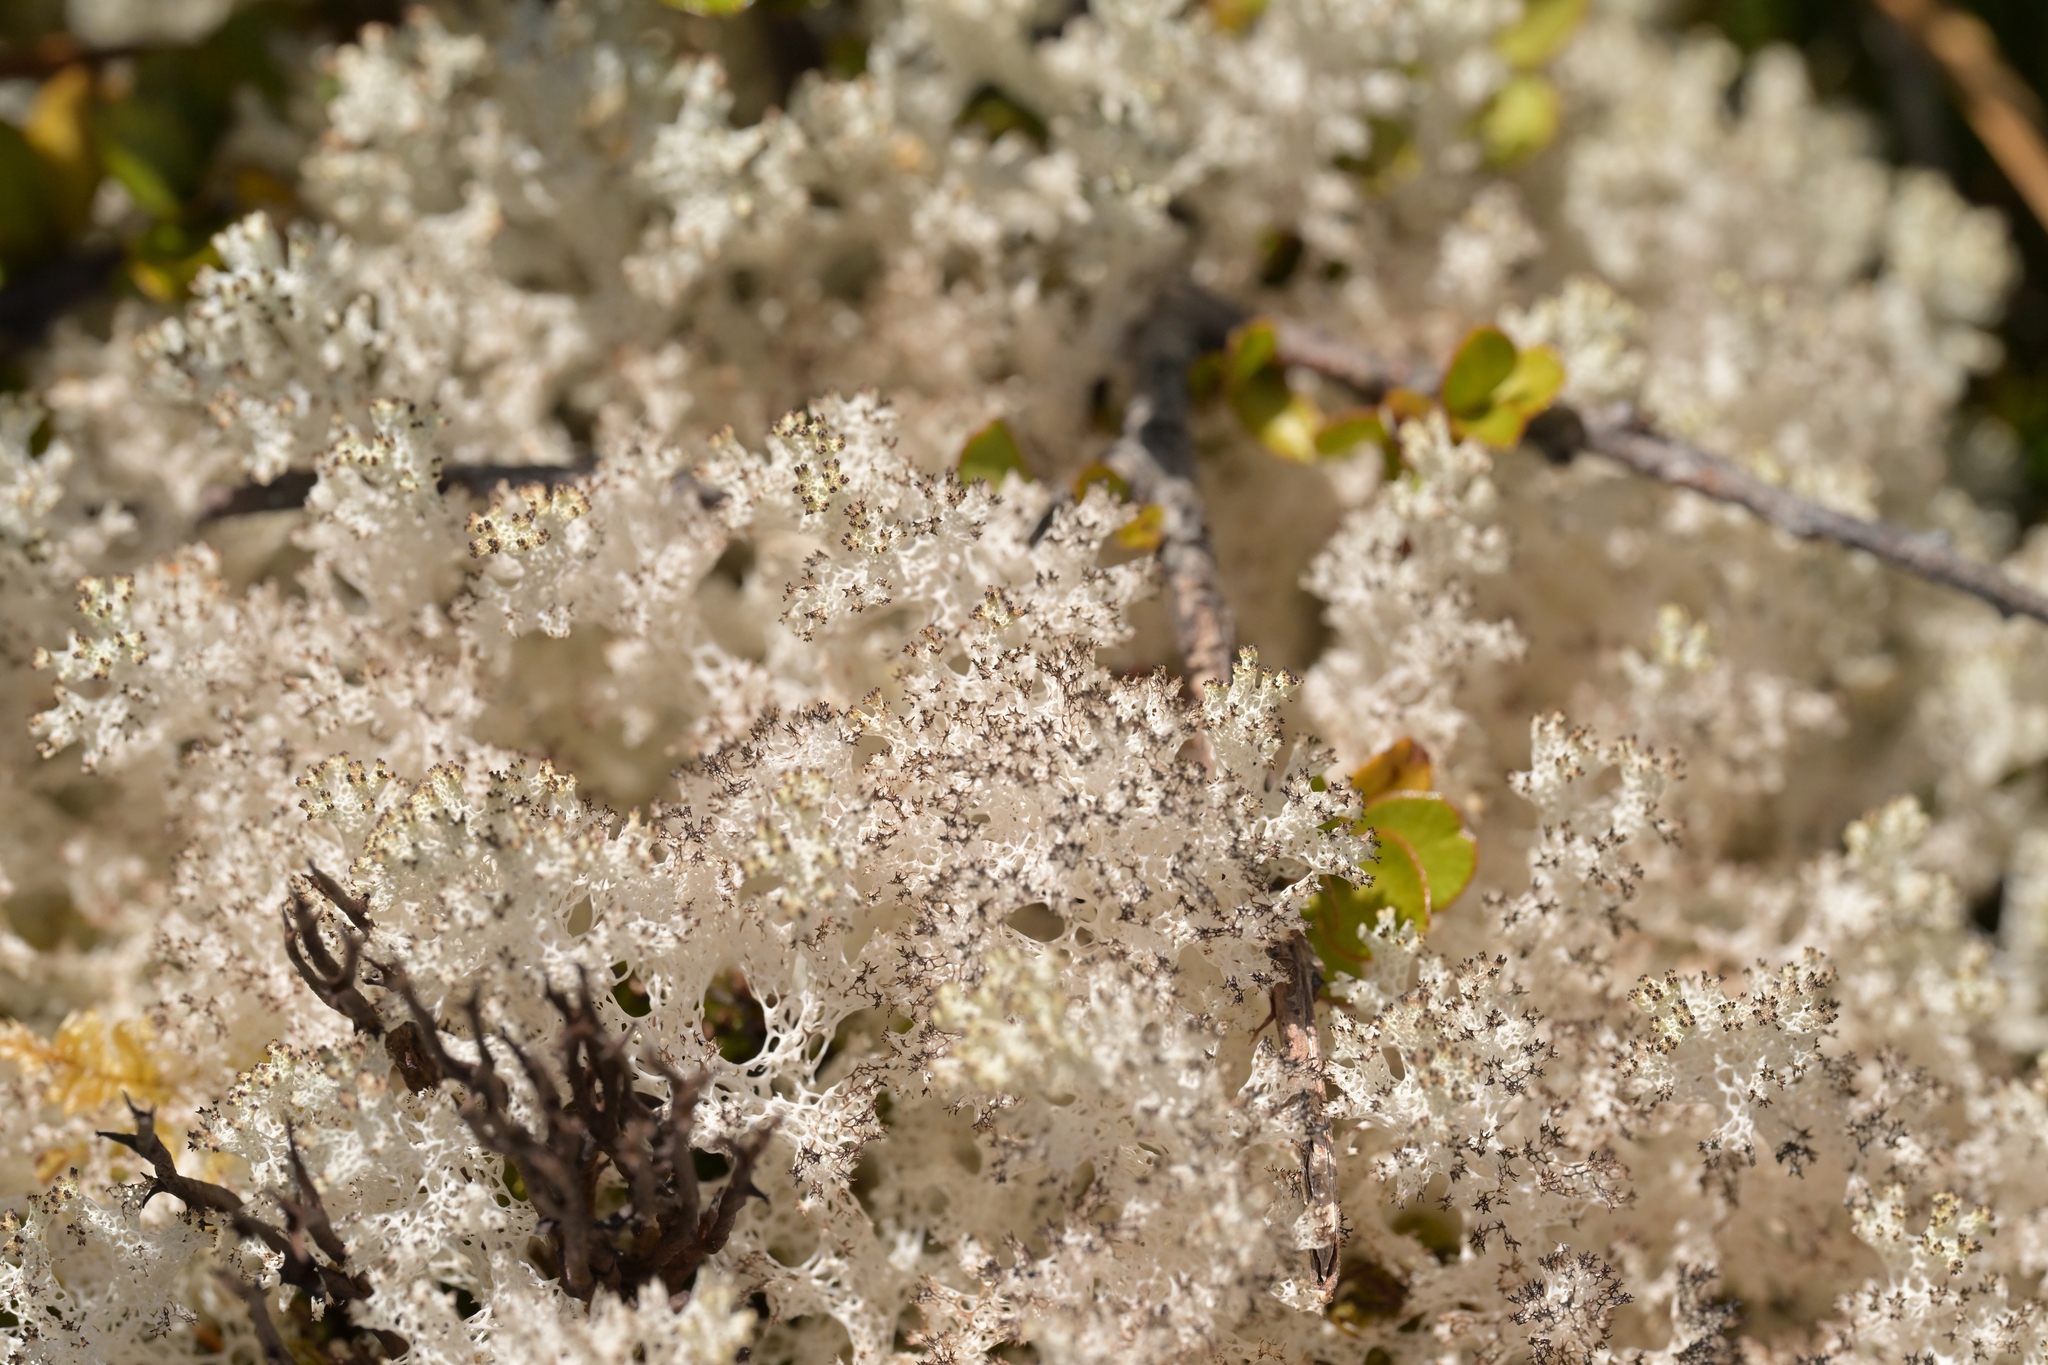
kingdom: Fungi
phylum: Ascomycota
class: Lecanoromycetes
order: Lecanorales
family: Cladoniaceae
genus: Pulchrocladia
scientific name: Pulchrocladia retipora
